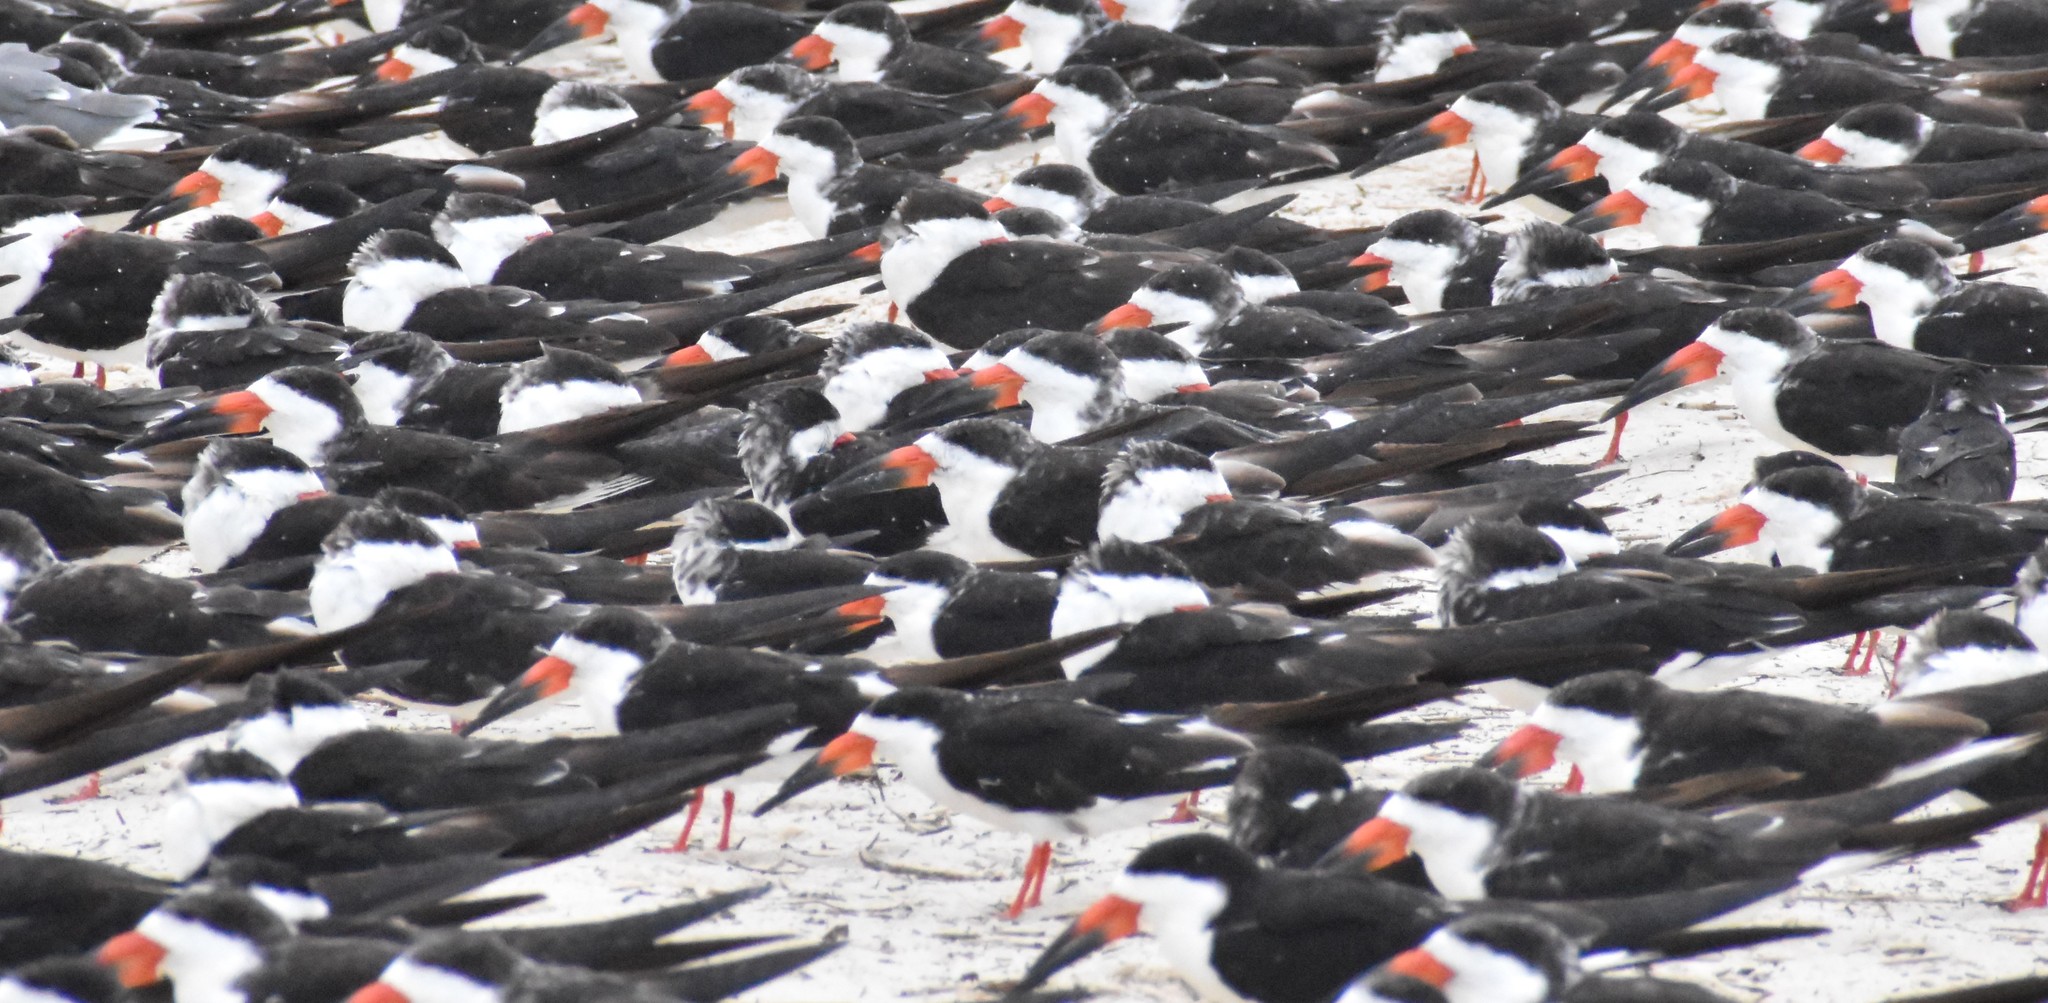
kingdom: Animalia
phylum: Chordata
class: Aves
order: Charadriiformes
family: Laridae
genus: Rynchops
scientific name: Rynchops niger
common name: Black skimmer
